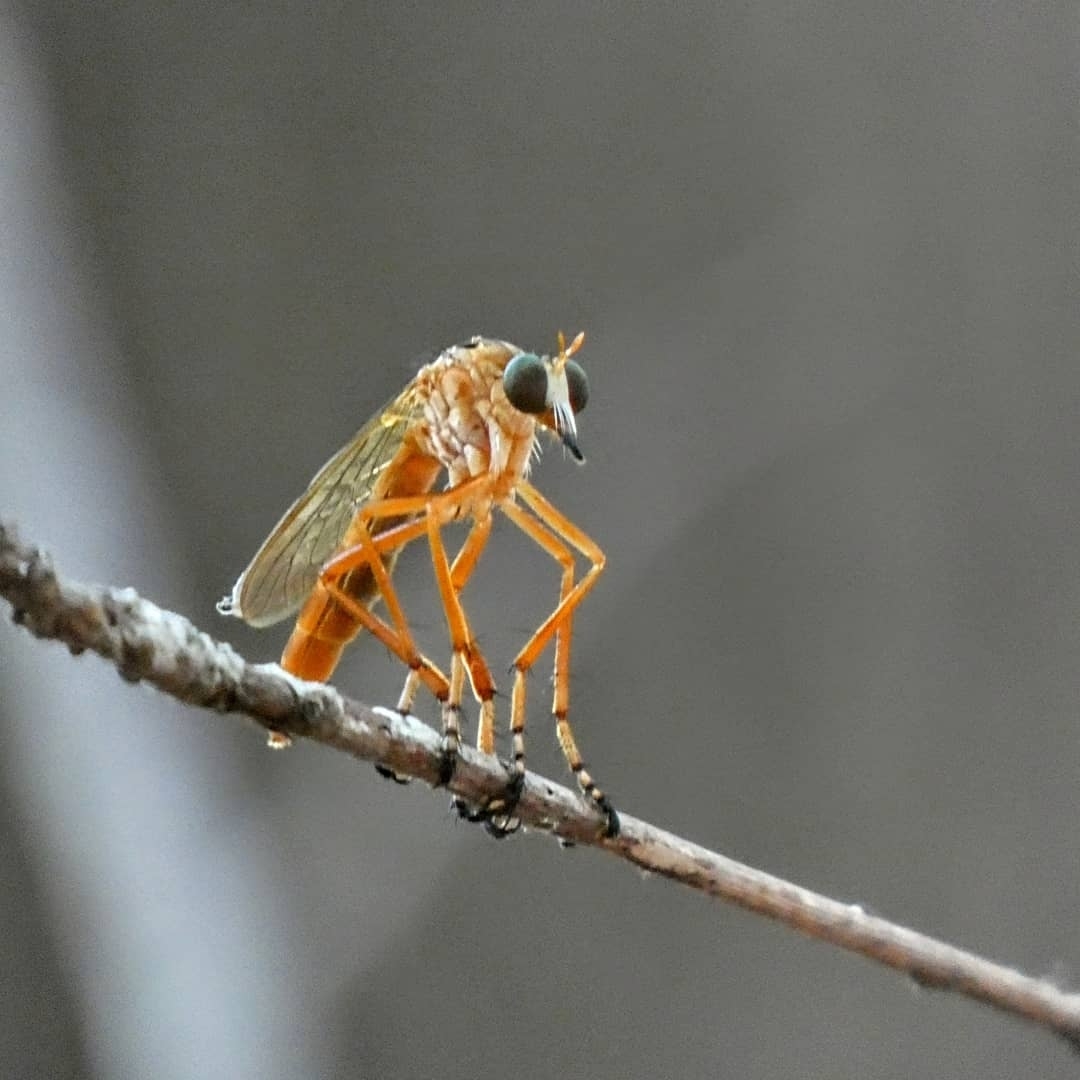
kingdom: Animalia
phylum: Arthropoda
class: Insecta
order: Diptera
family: Asilidae
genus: Diogmites
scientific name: Diogmites neoternatus
